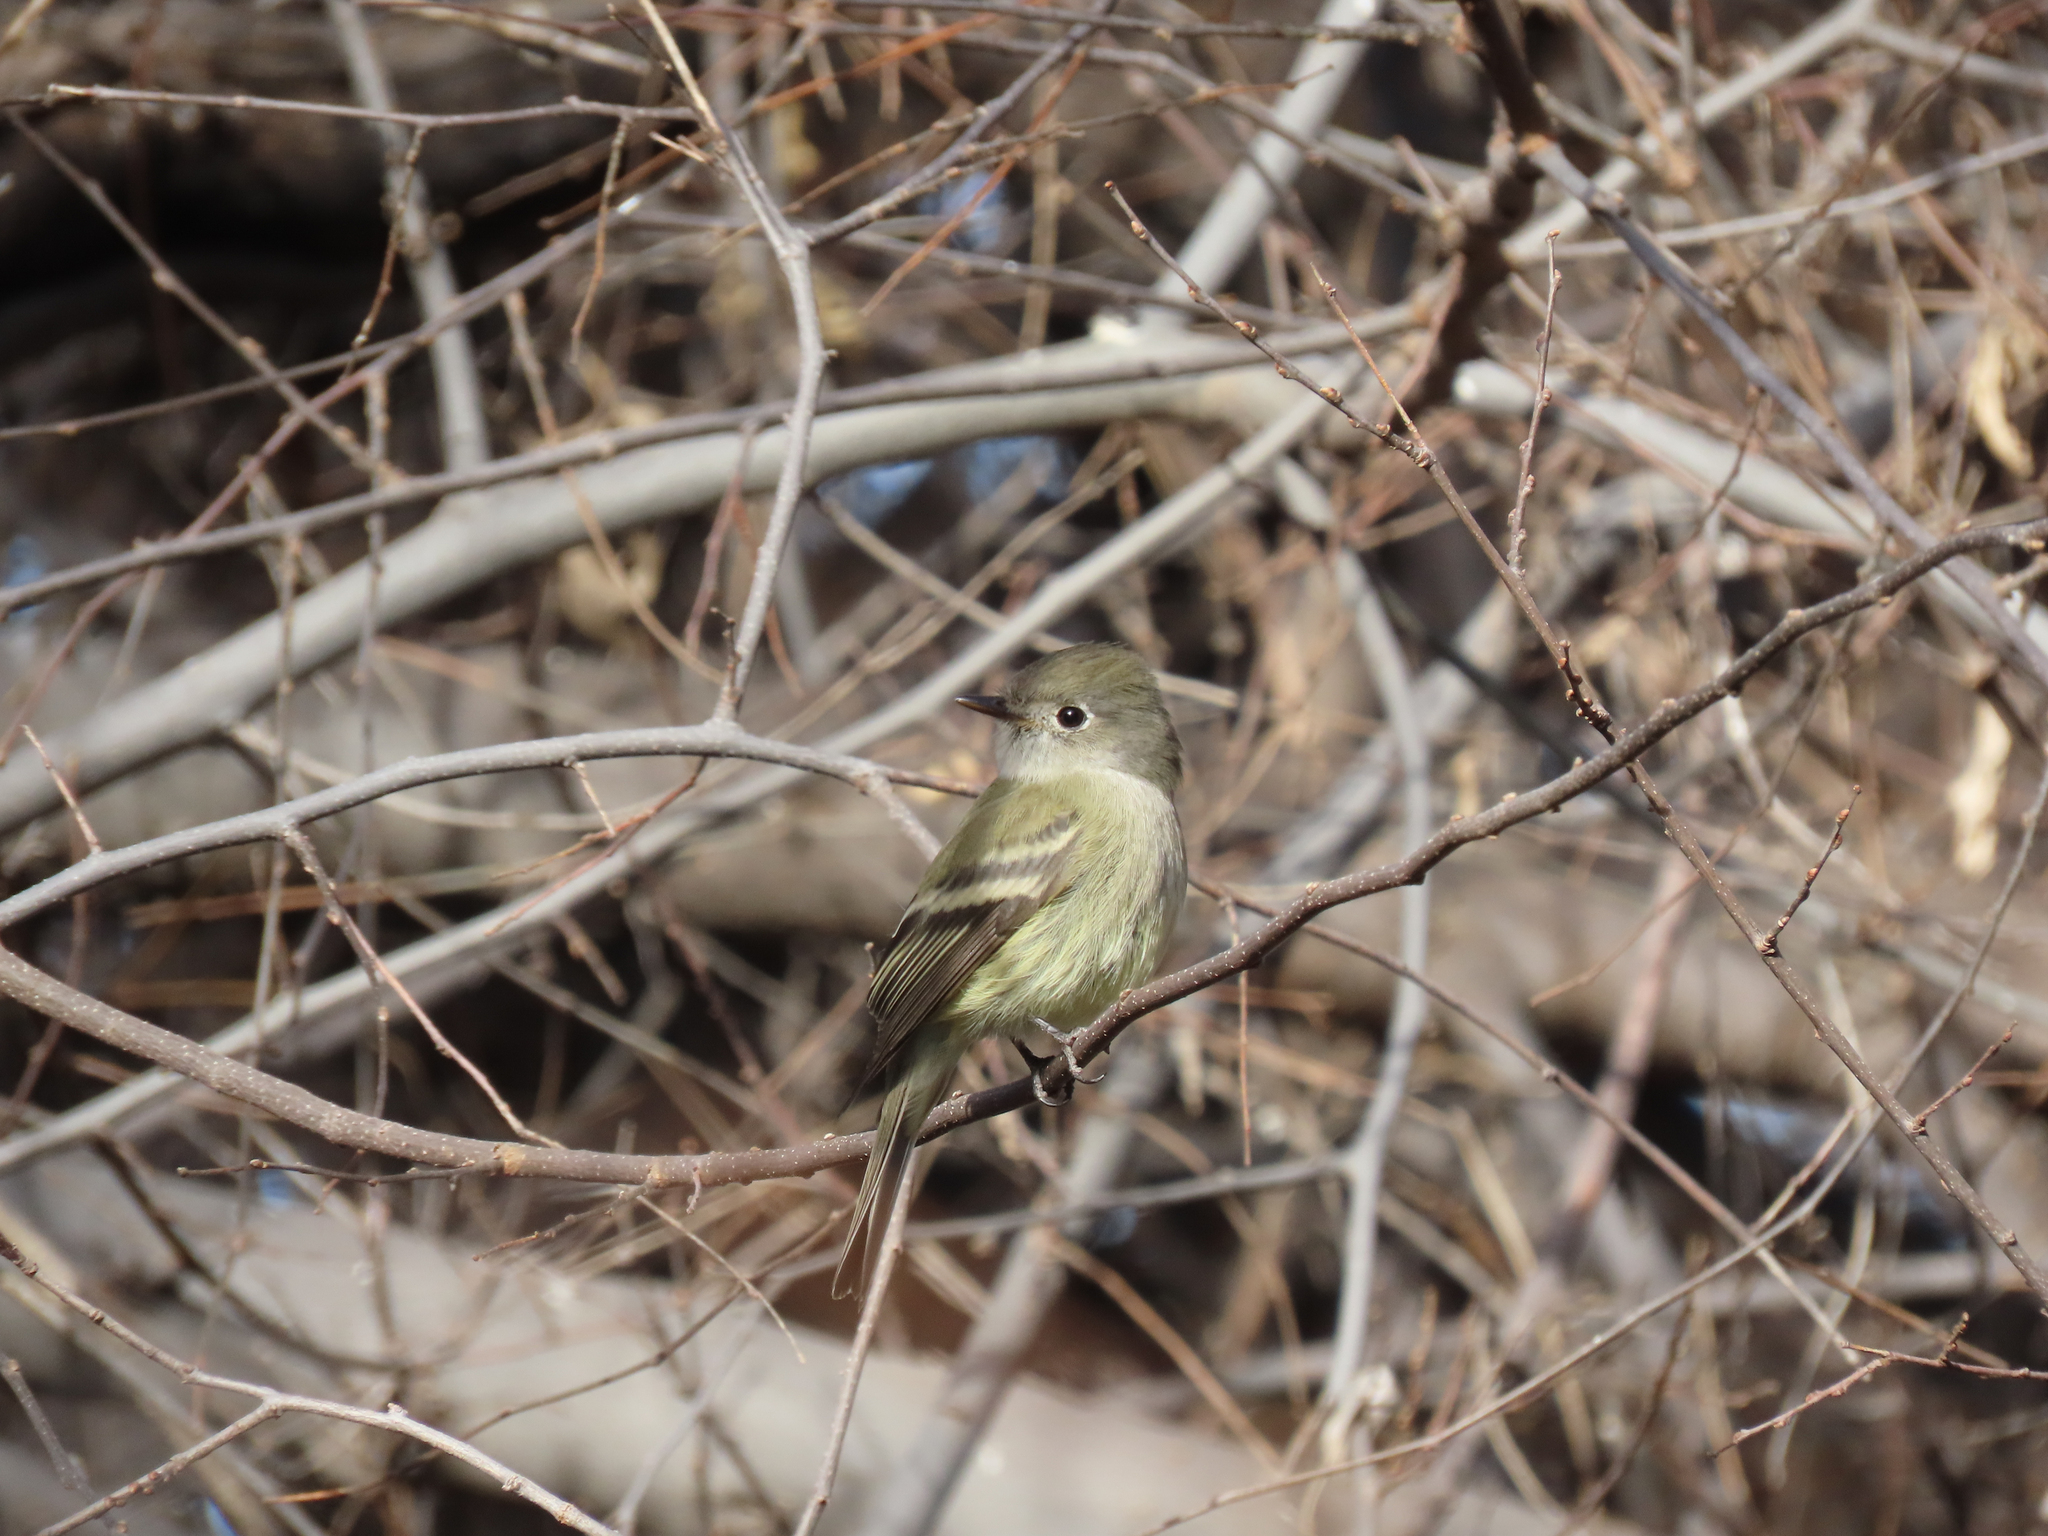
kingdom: Animalia
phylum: Chordata
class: Aves
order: Passeriformes
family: Tyrannidae
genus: Empidonax
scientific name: Empidonax hammondii
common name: Hammond's flycatcher
